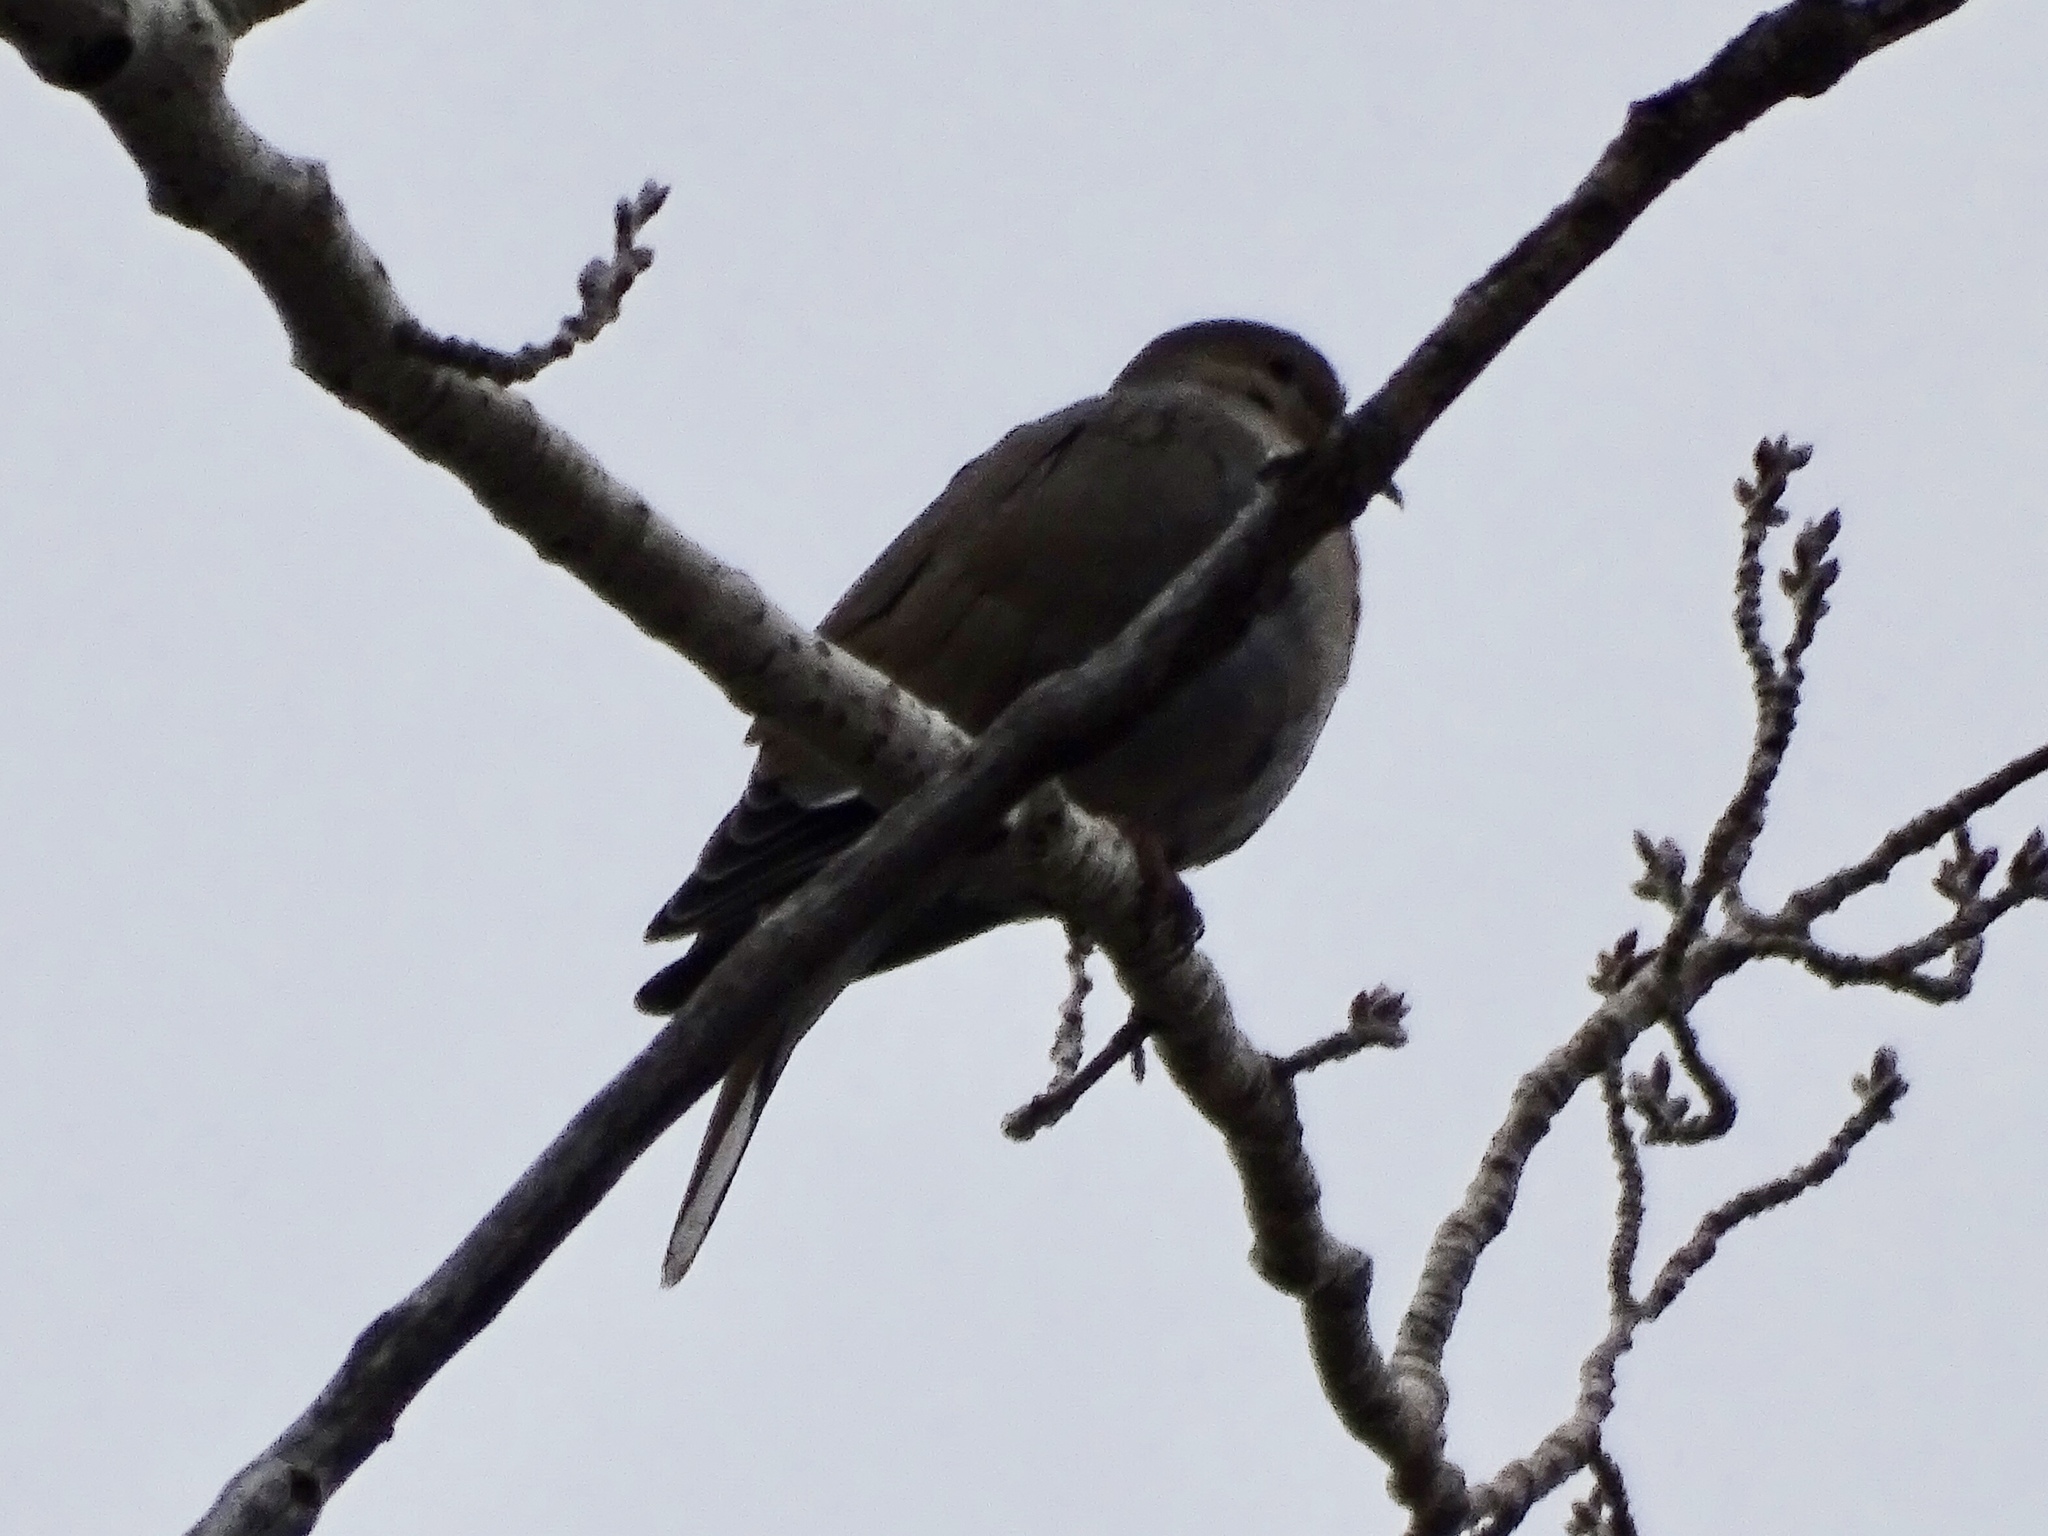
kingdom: Animalia
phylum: Chordata
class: Aves
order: Columbiformes
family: Columbidae
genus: Zenaida
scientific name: Zenaida asiatica
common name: White-winged dove
